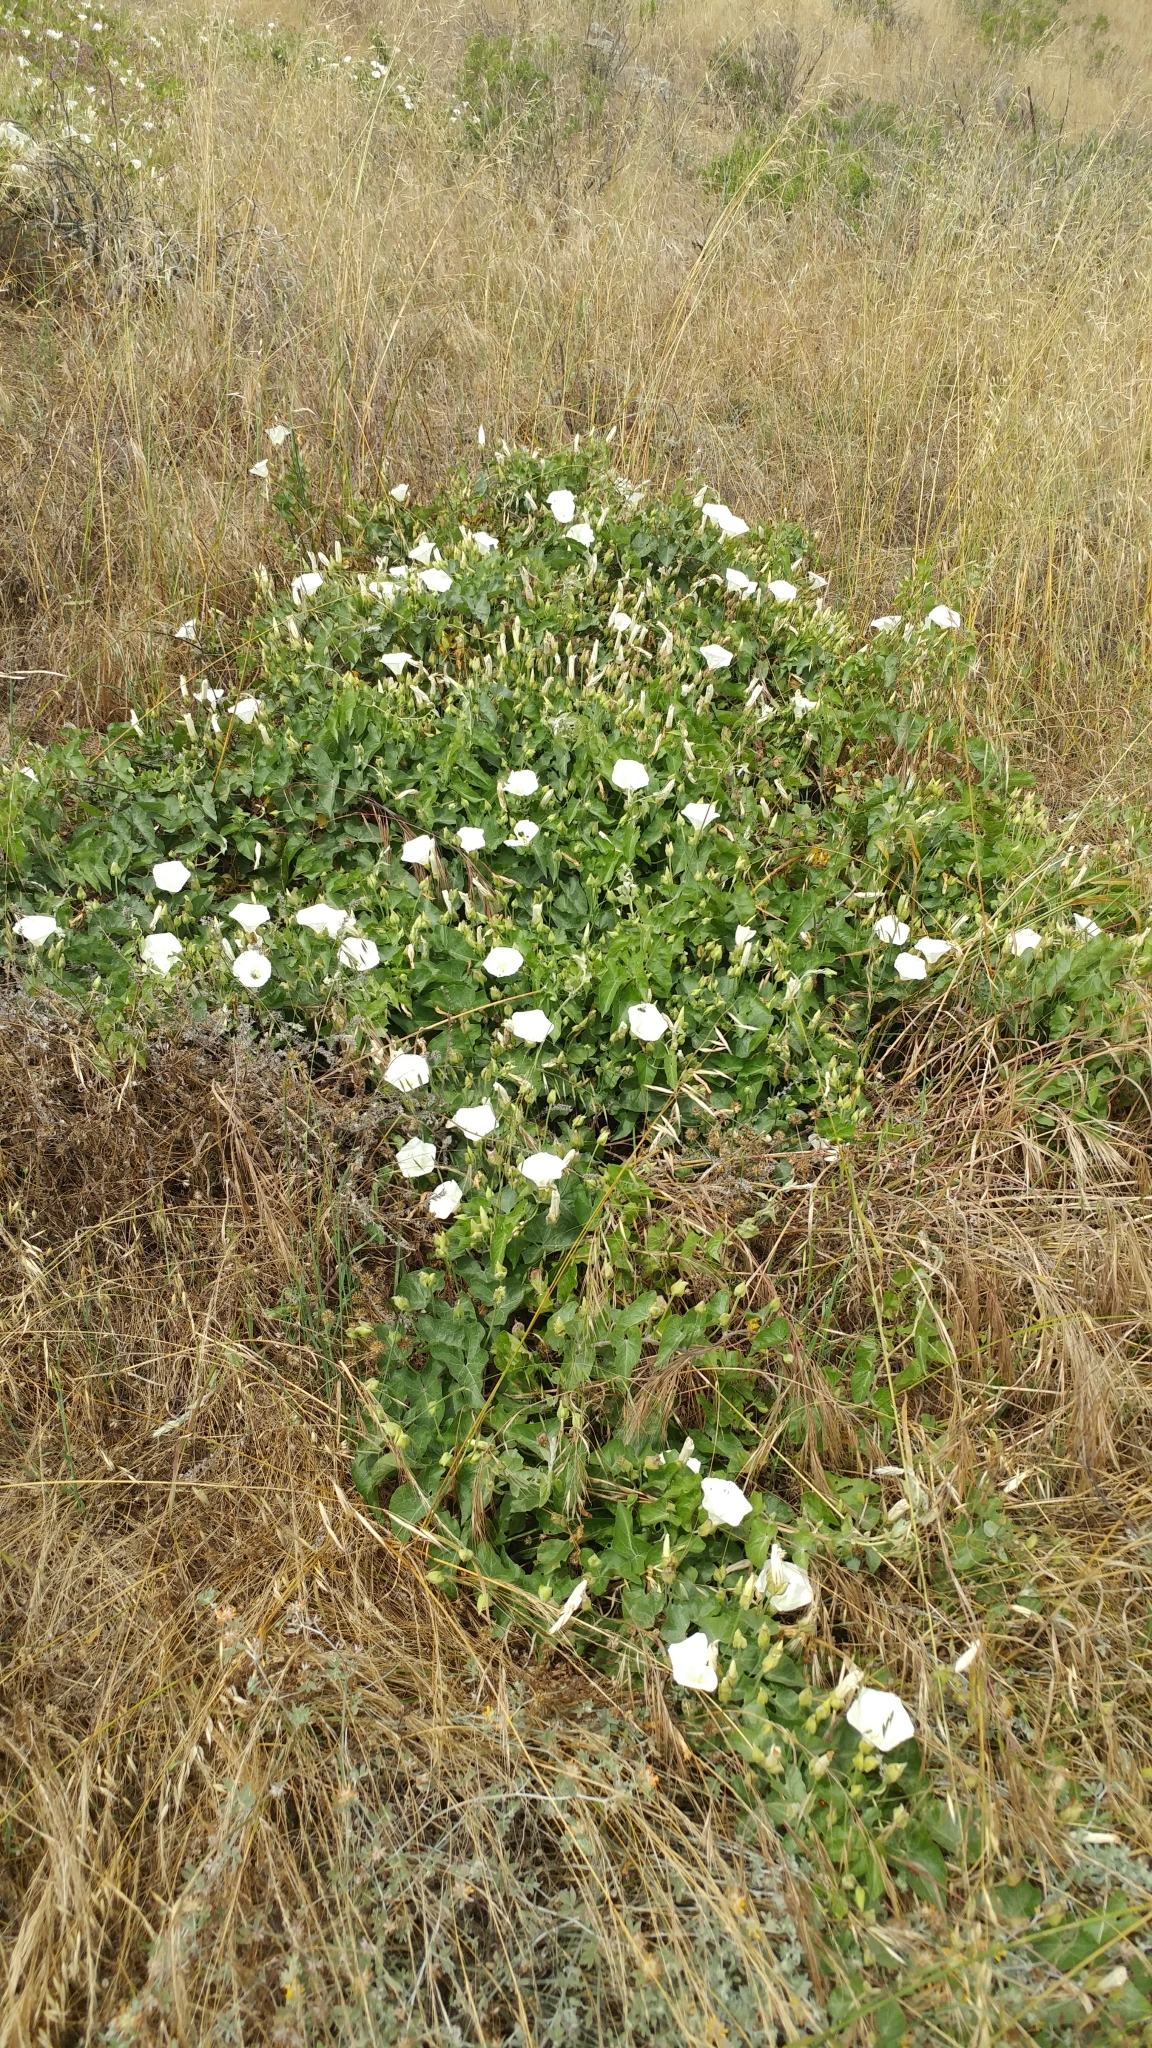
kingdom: Plantae
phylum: Tracheophyta
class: Magnoliopsida
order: Solanales
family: Convolvulaceae
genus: Calystegia
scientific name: Calystegia macrostegia
